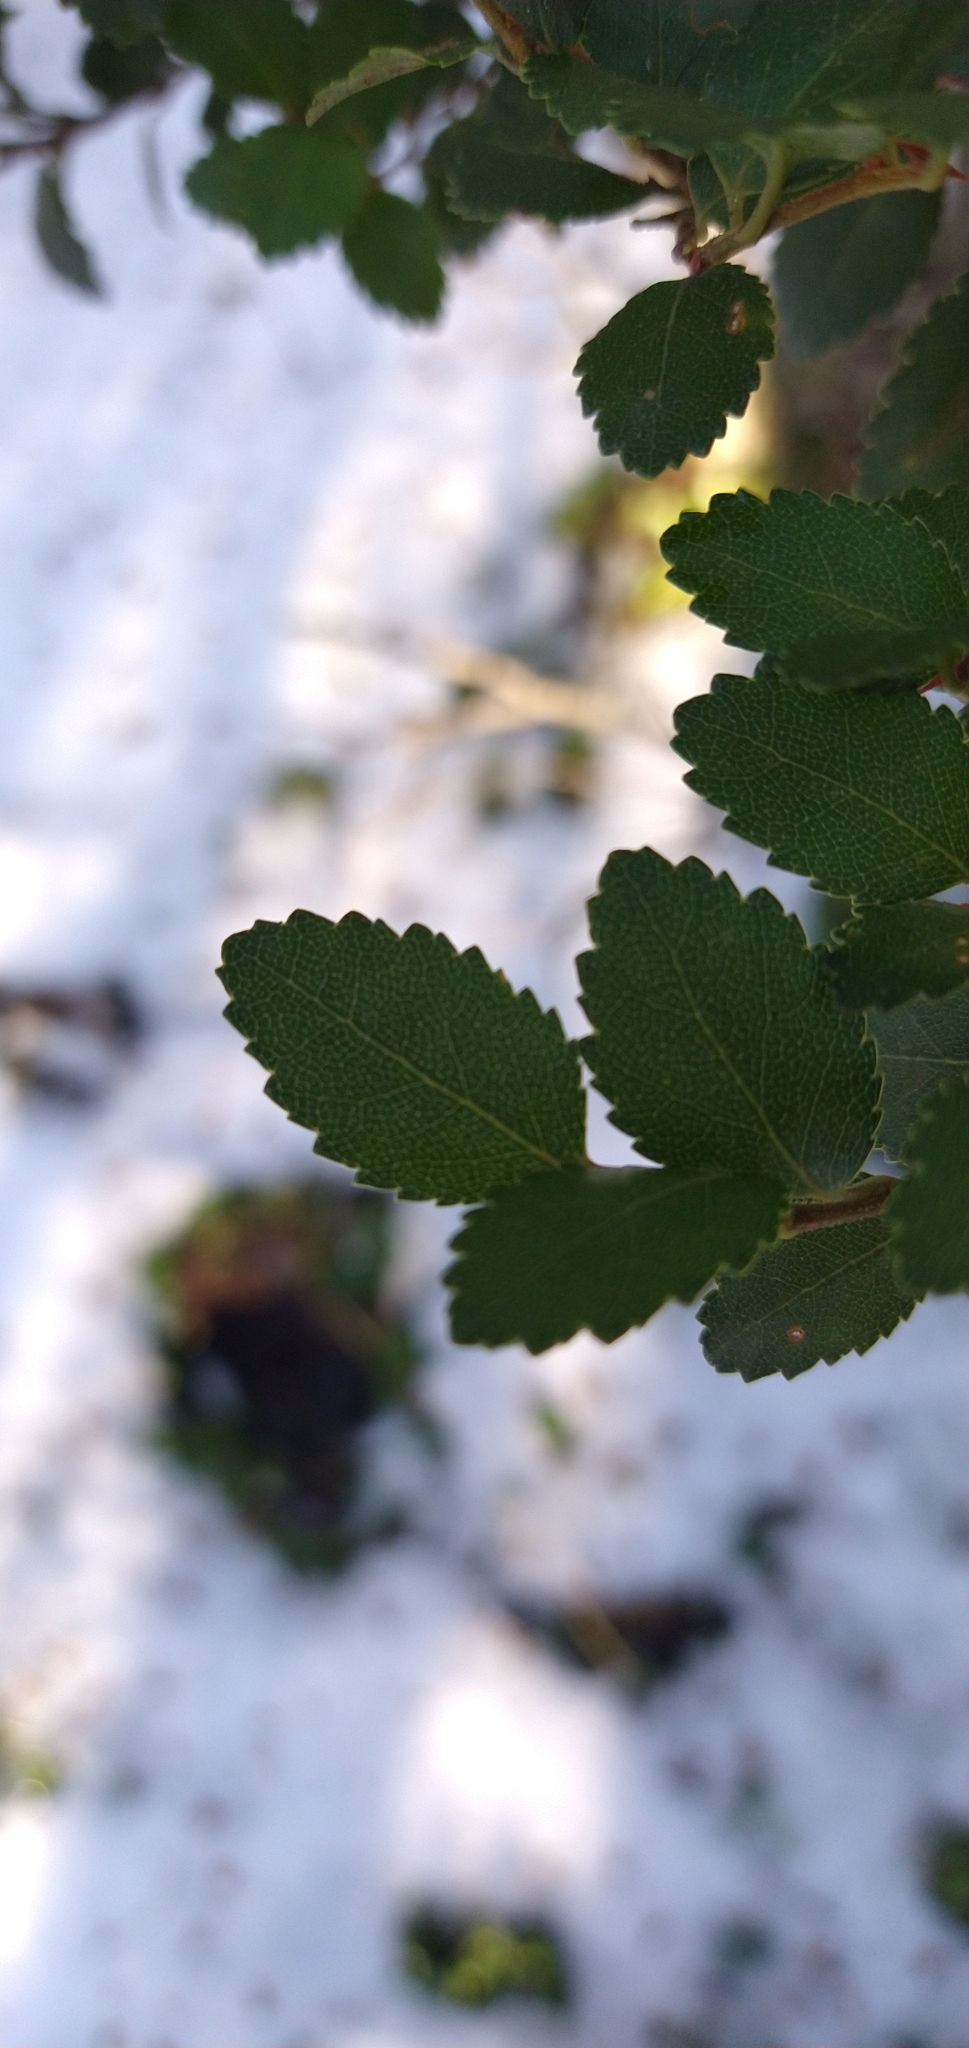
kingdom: Plantae
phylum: Tracheophyta
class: Magnoliopsida
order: Fagales
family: Nothofagaceae
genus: Nothofagus
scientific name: Nothofagus betuloides
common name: Magellan's beech
